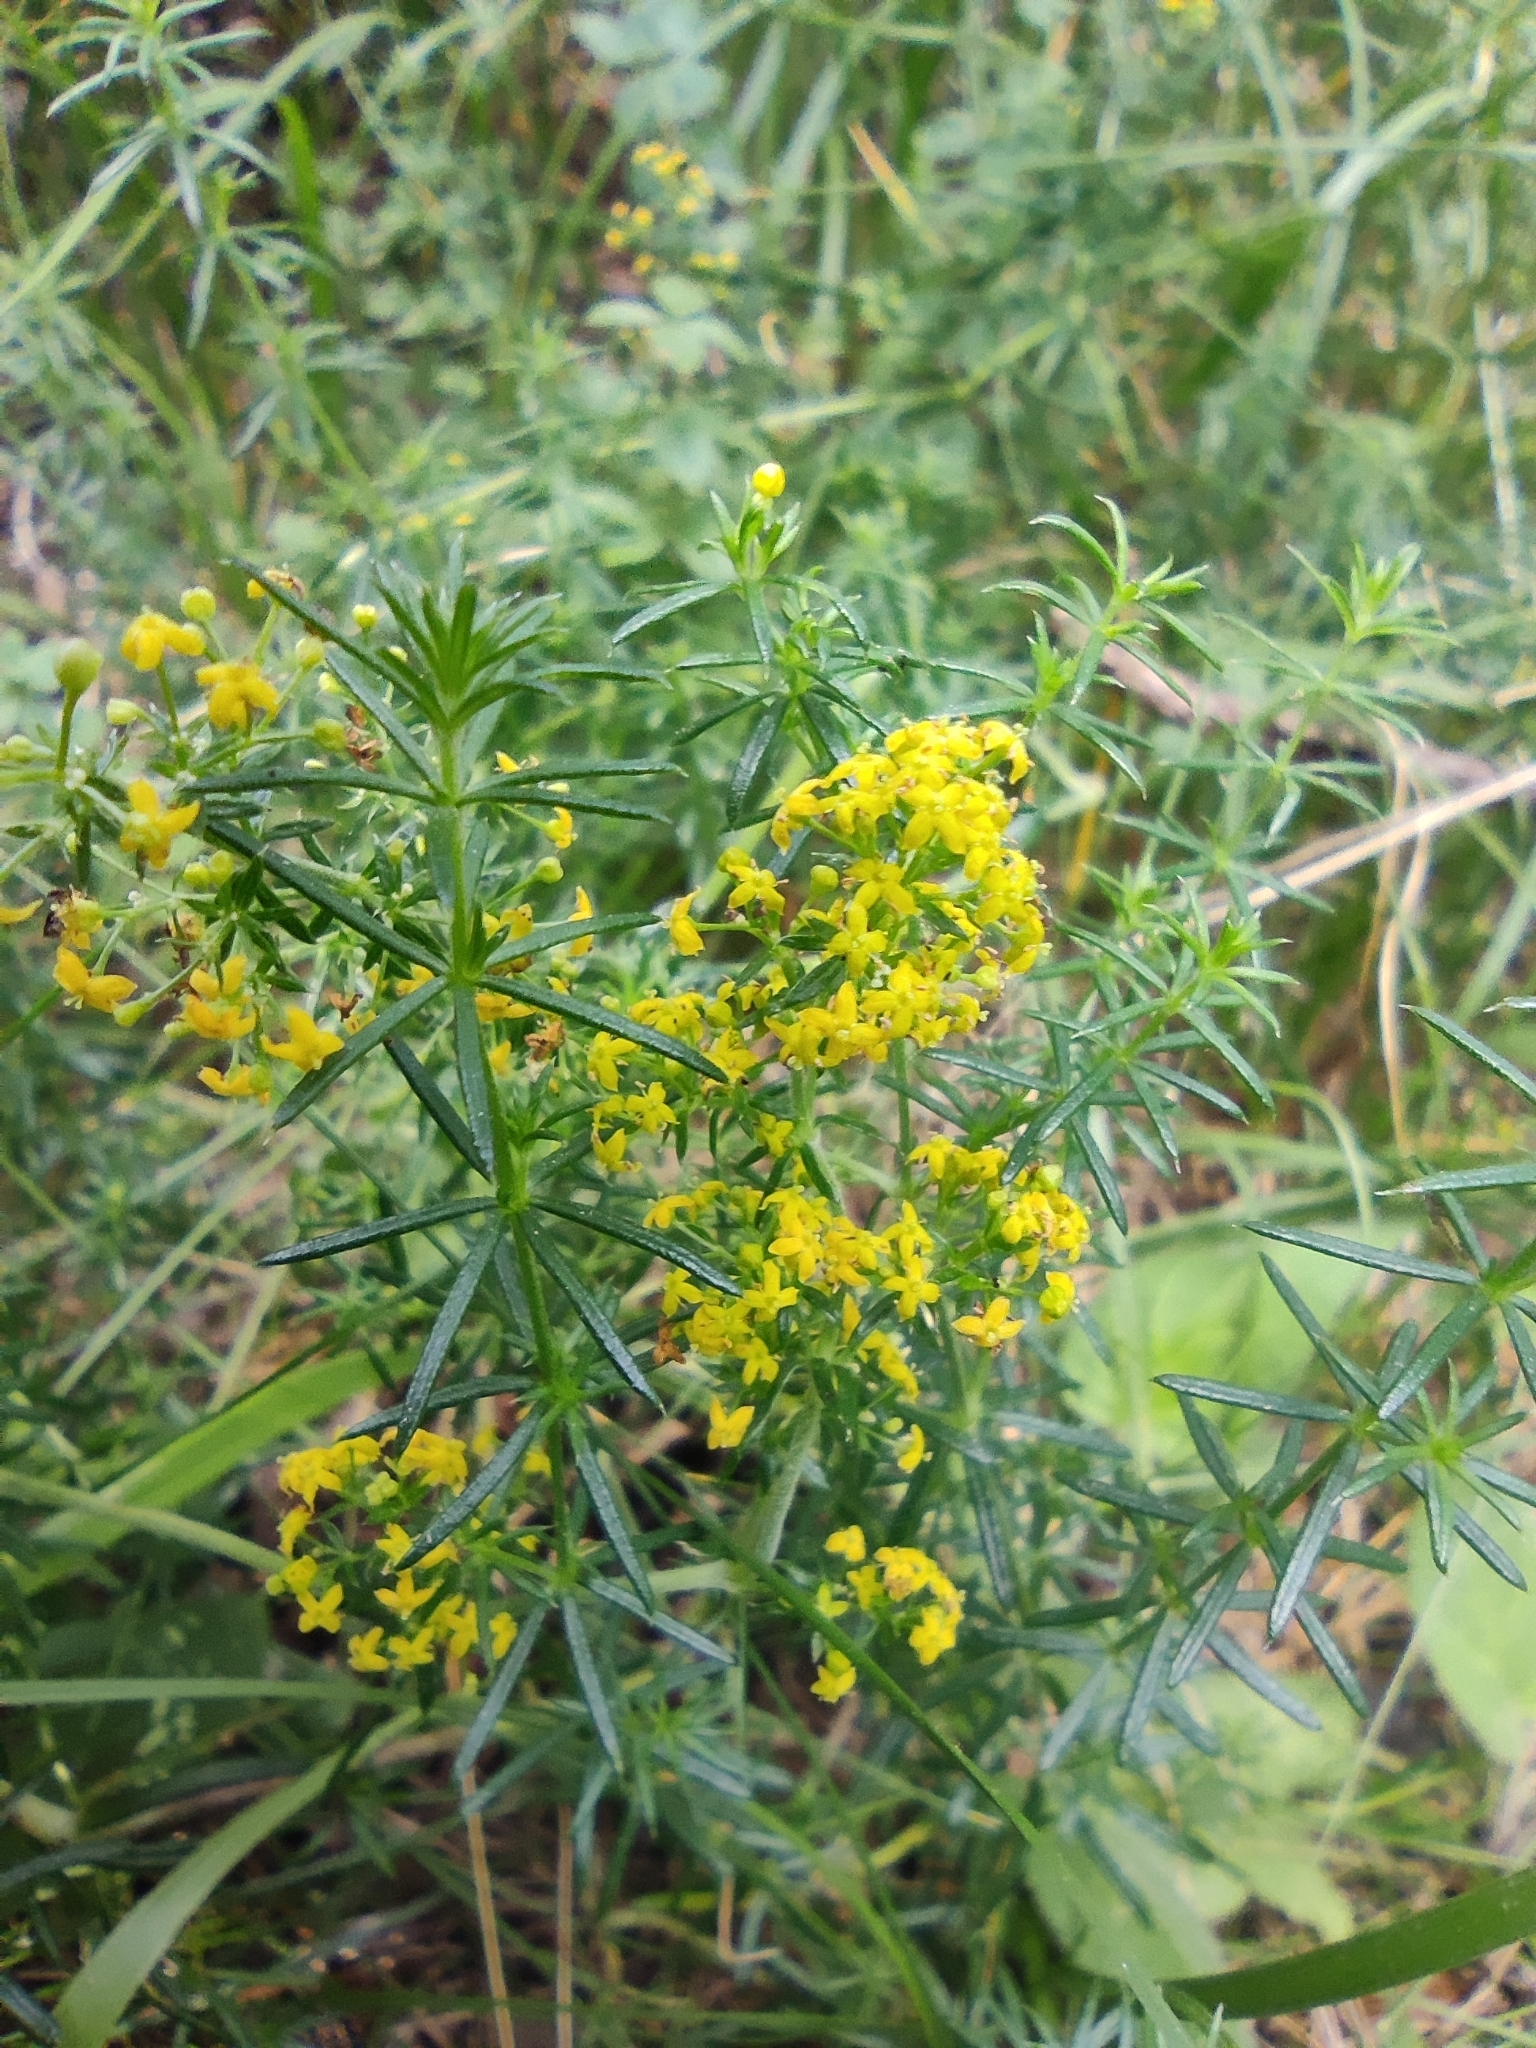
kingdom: Plantae
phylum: Tracheophyta
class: Magnoliopsida
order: Gentianales
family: Rubiaceae
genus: Galium
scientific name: Galium verum
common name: Lady's bedstraw
